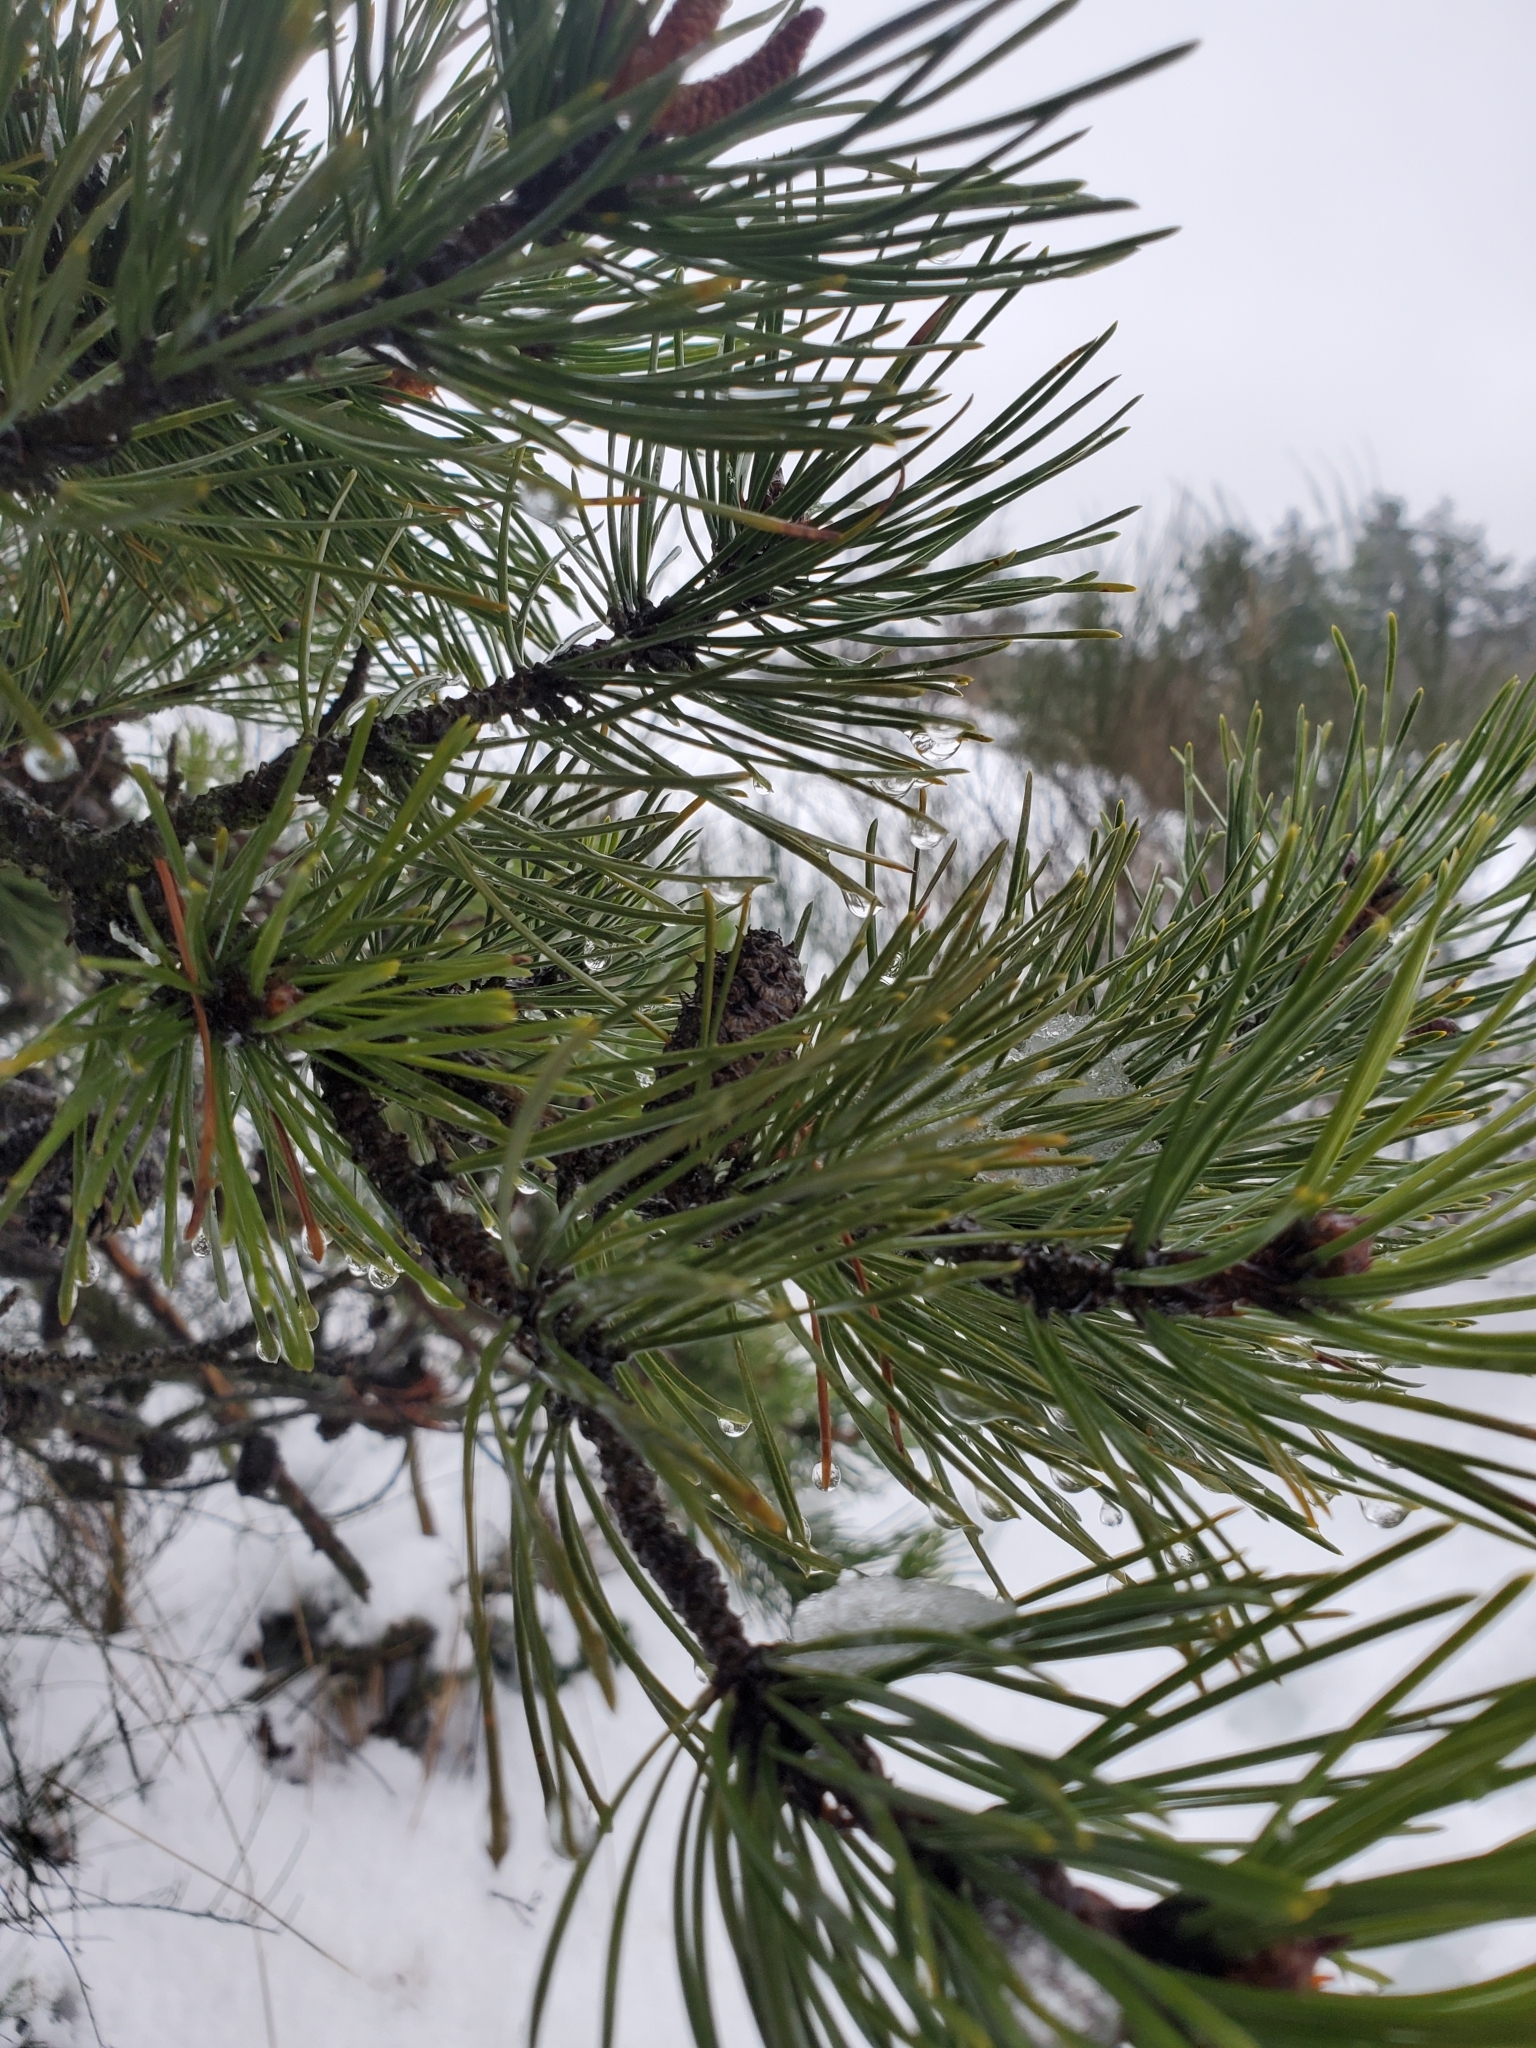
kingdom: Plantae
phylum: Tracheophyta
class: Pinopsida
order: Pinales
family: Pinaceae
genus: Pinus
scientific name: Pinus contorta
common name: Lodgepole pine
